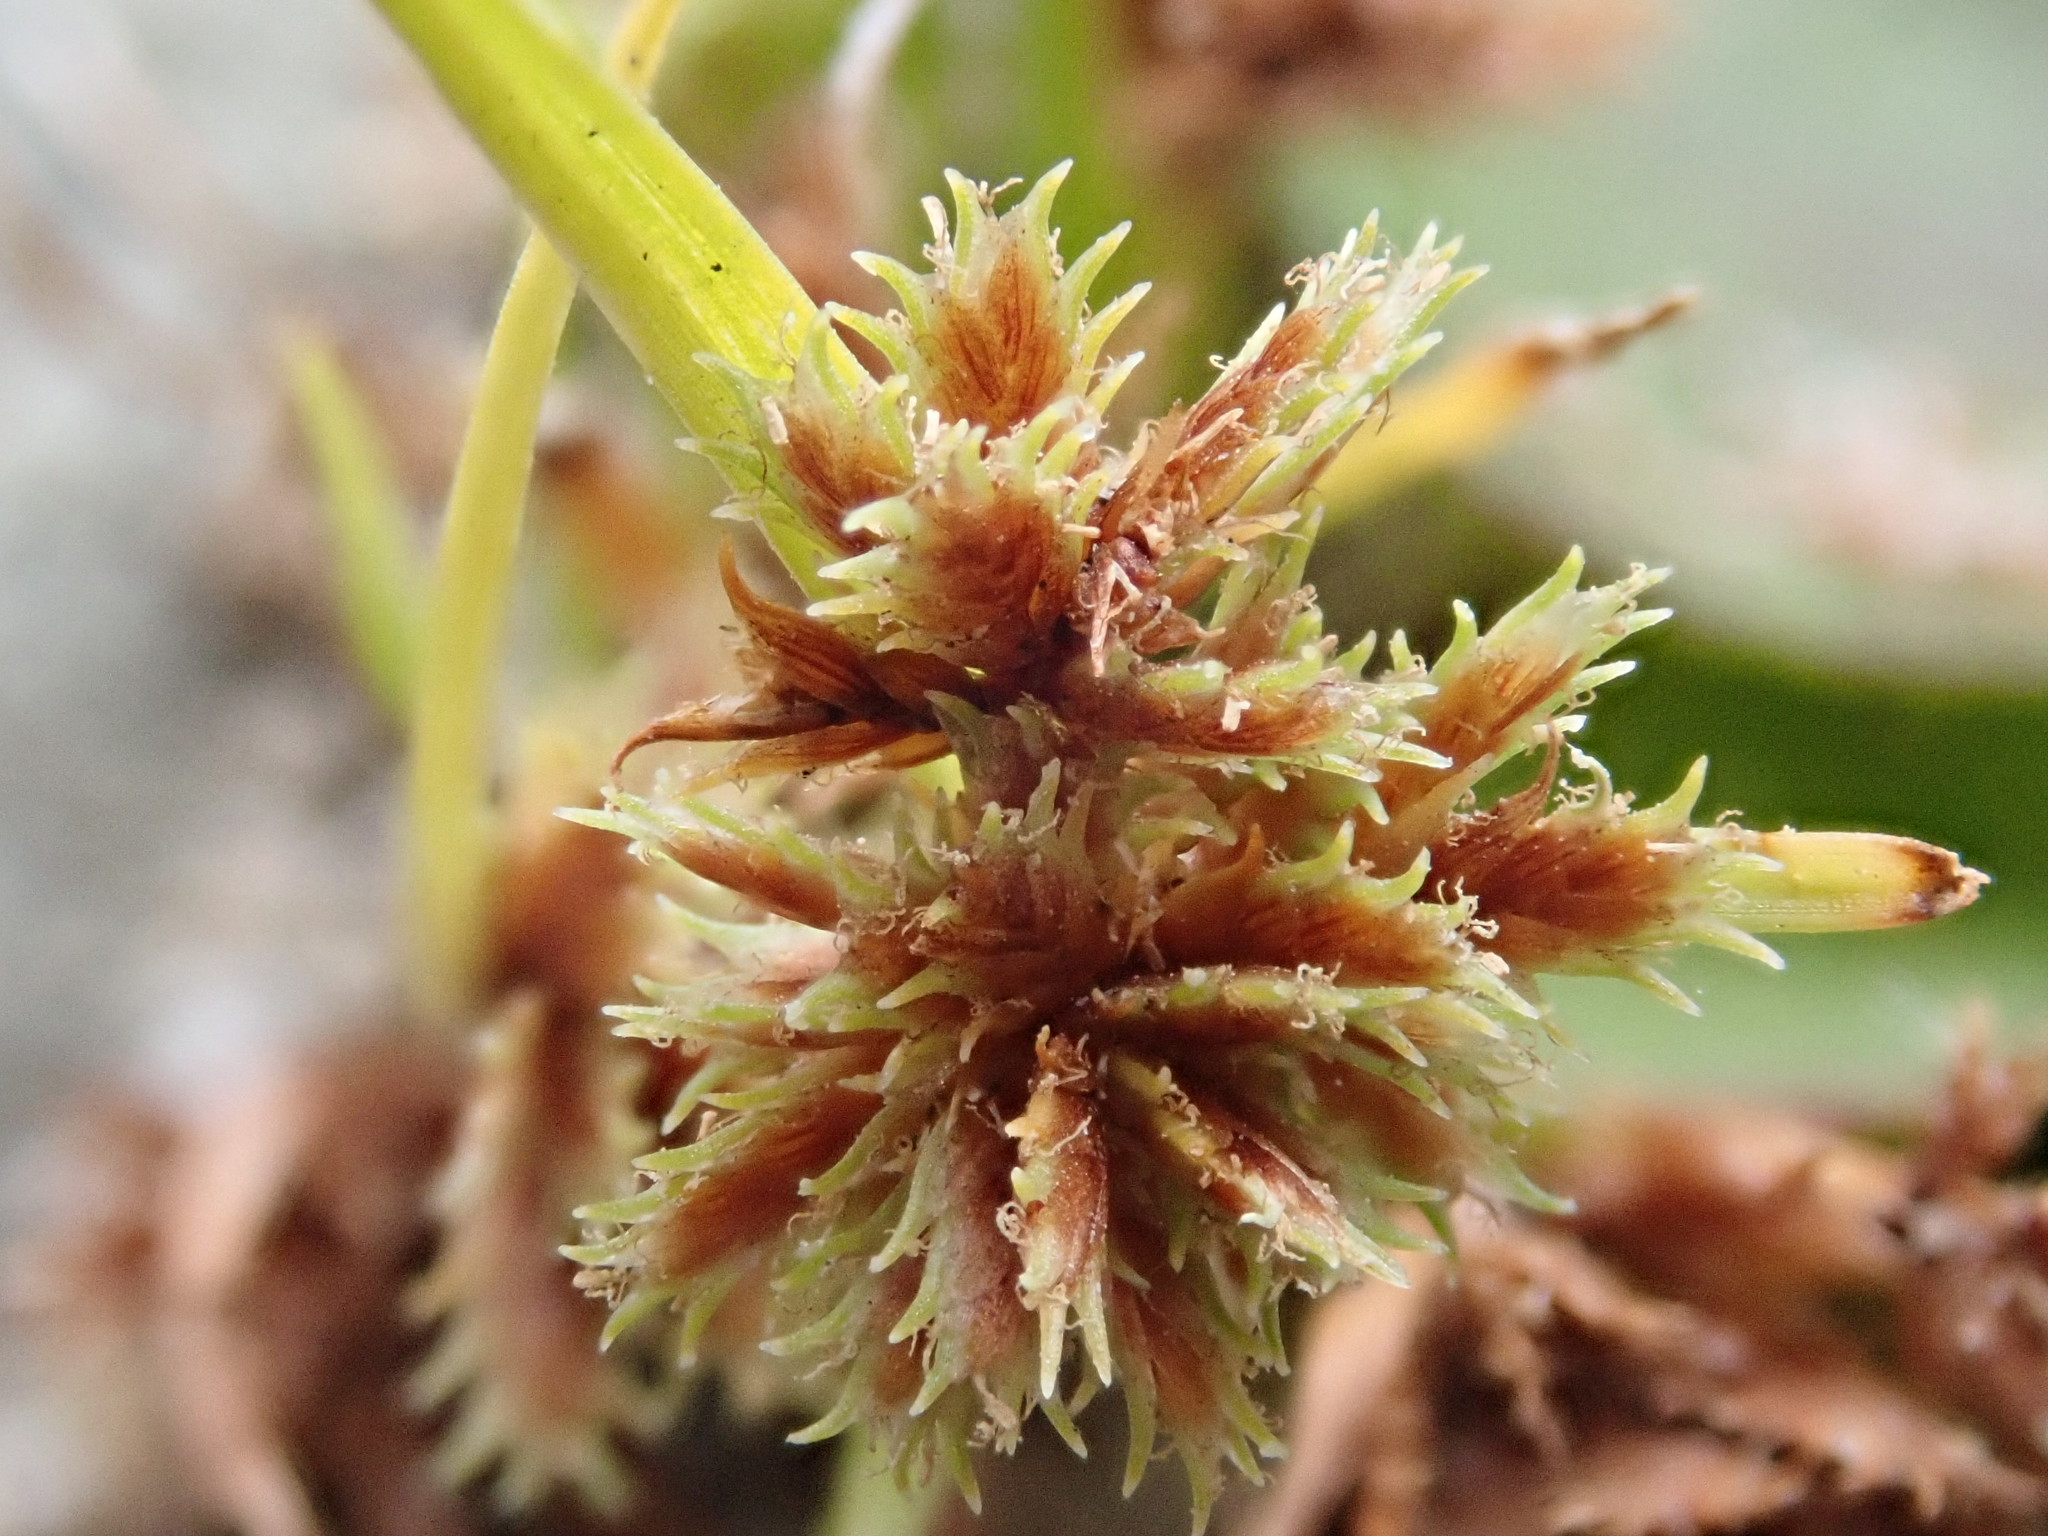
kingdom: Plantae
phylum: Tracheophyta
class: Liliopsida
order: Poales
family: Cyperaceae
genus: Cyperus
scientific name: Cyperus squarrosus
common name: Awned cyperus
